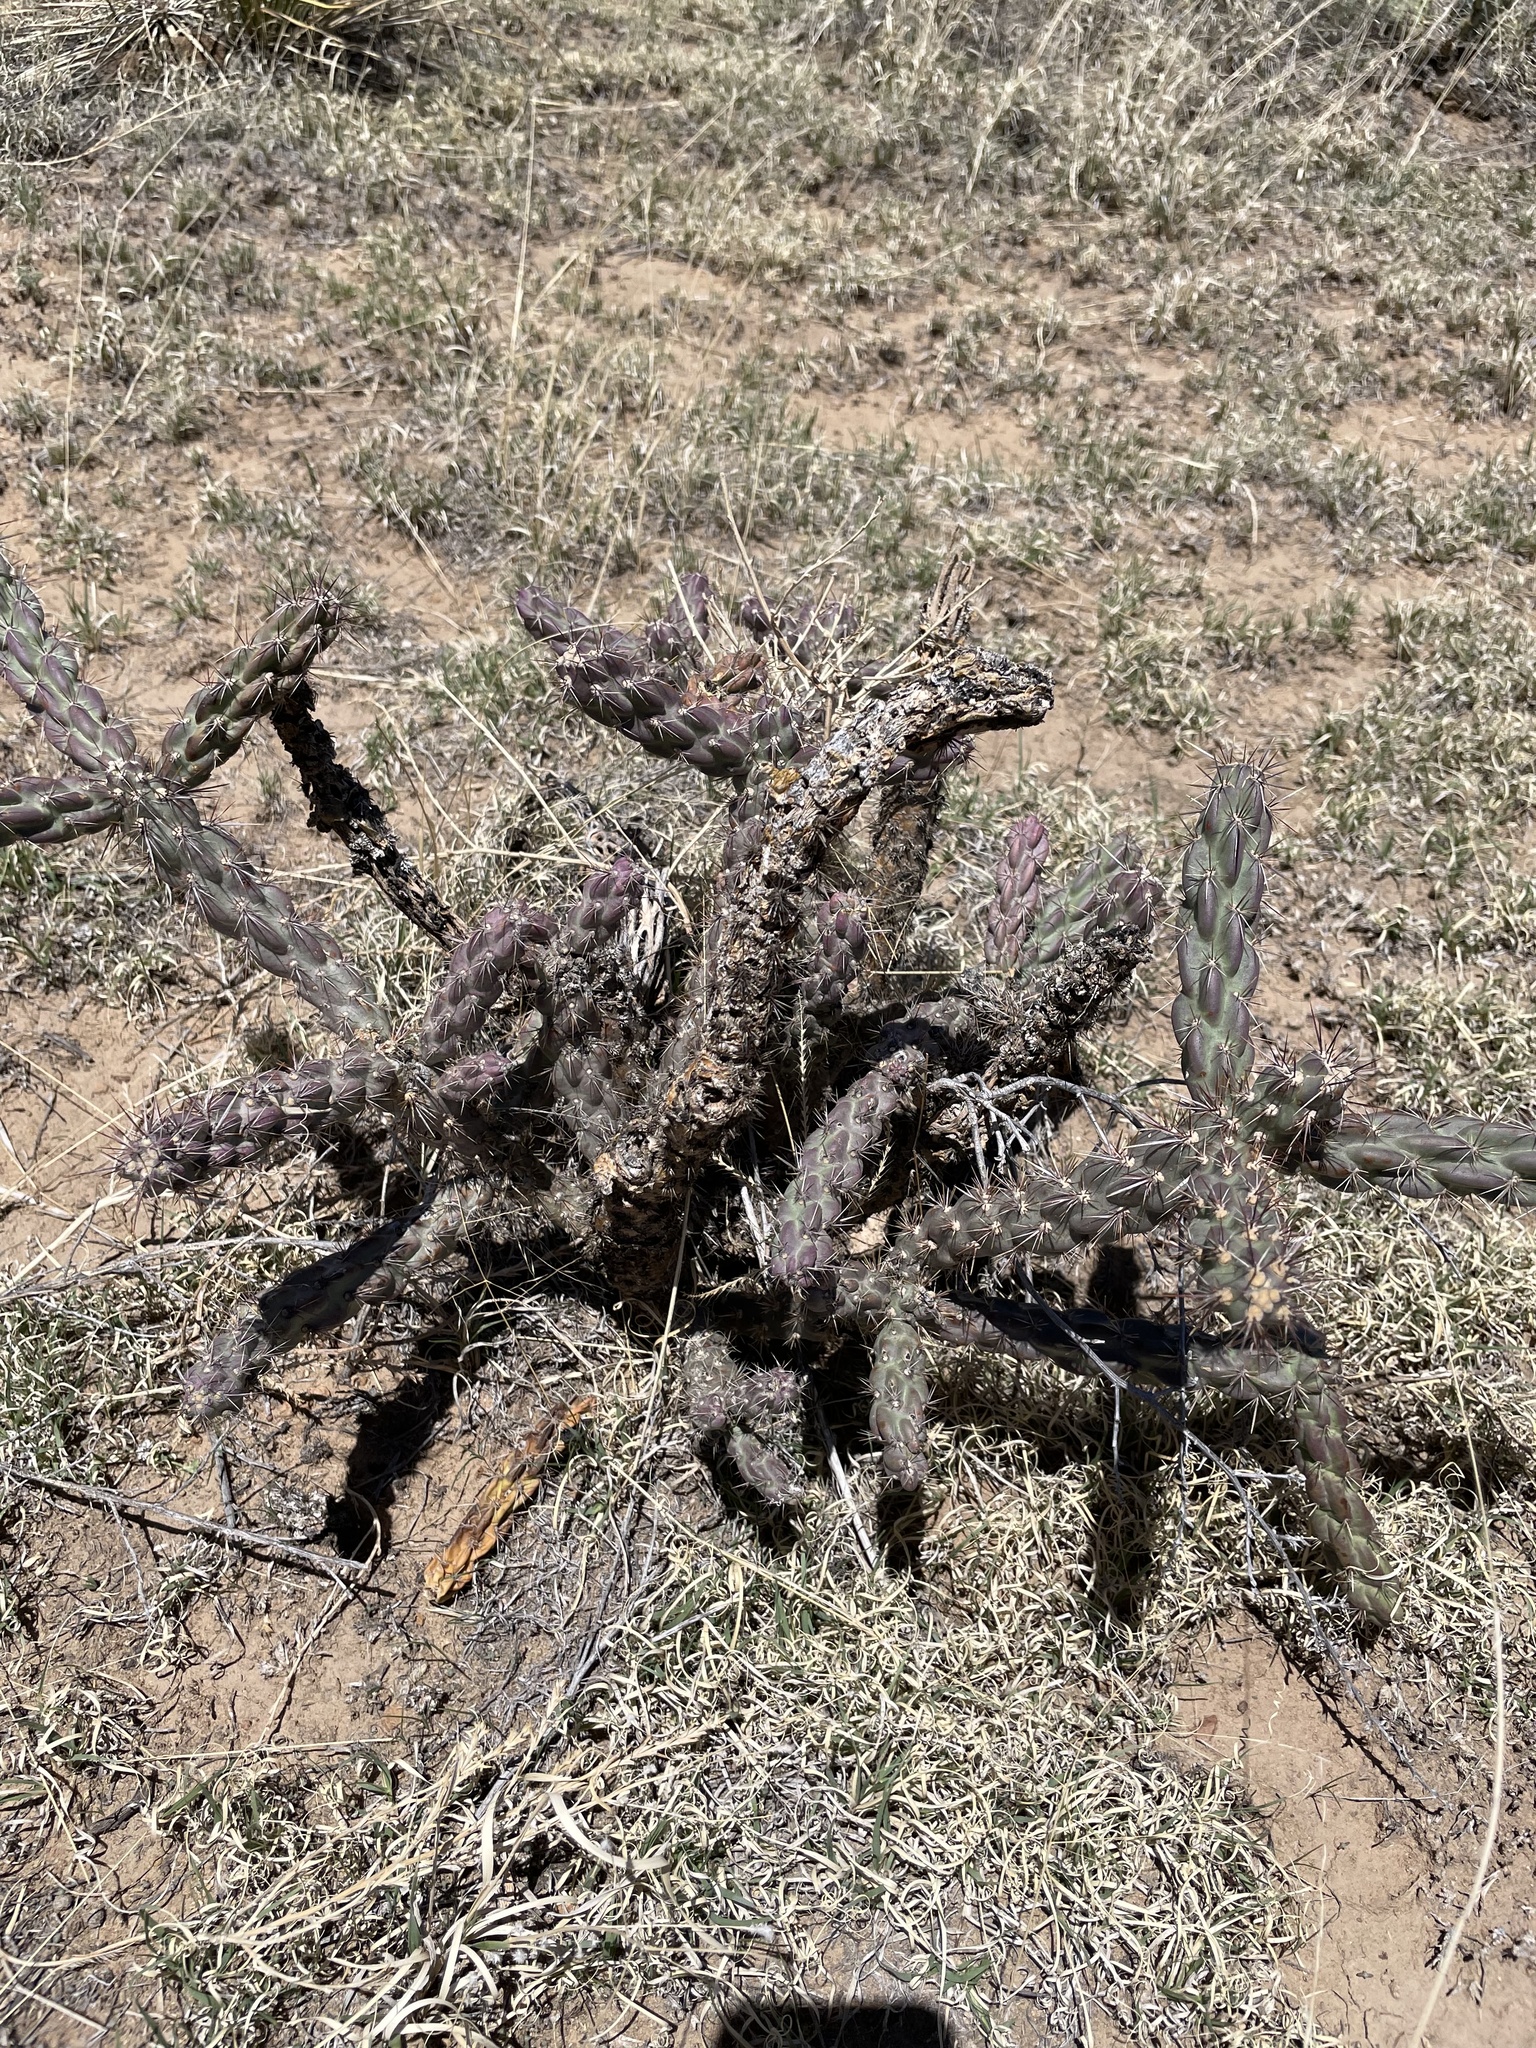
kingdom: Plantae
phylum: Tracheophyta
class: Magnoliopsida
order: Caryophyllales
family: Cactaceae
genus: Cylindropuntia
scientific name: Cylindropuntia imbricata
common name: Candelabrum cactus
